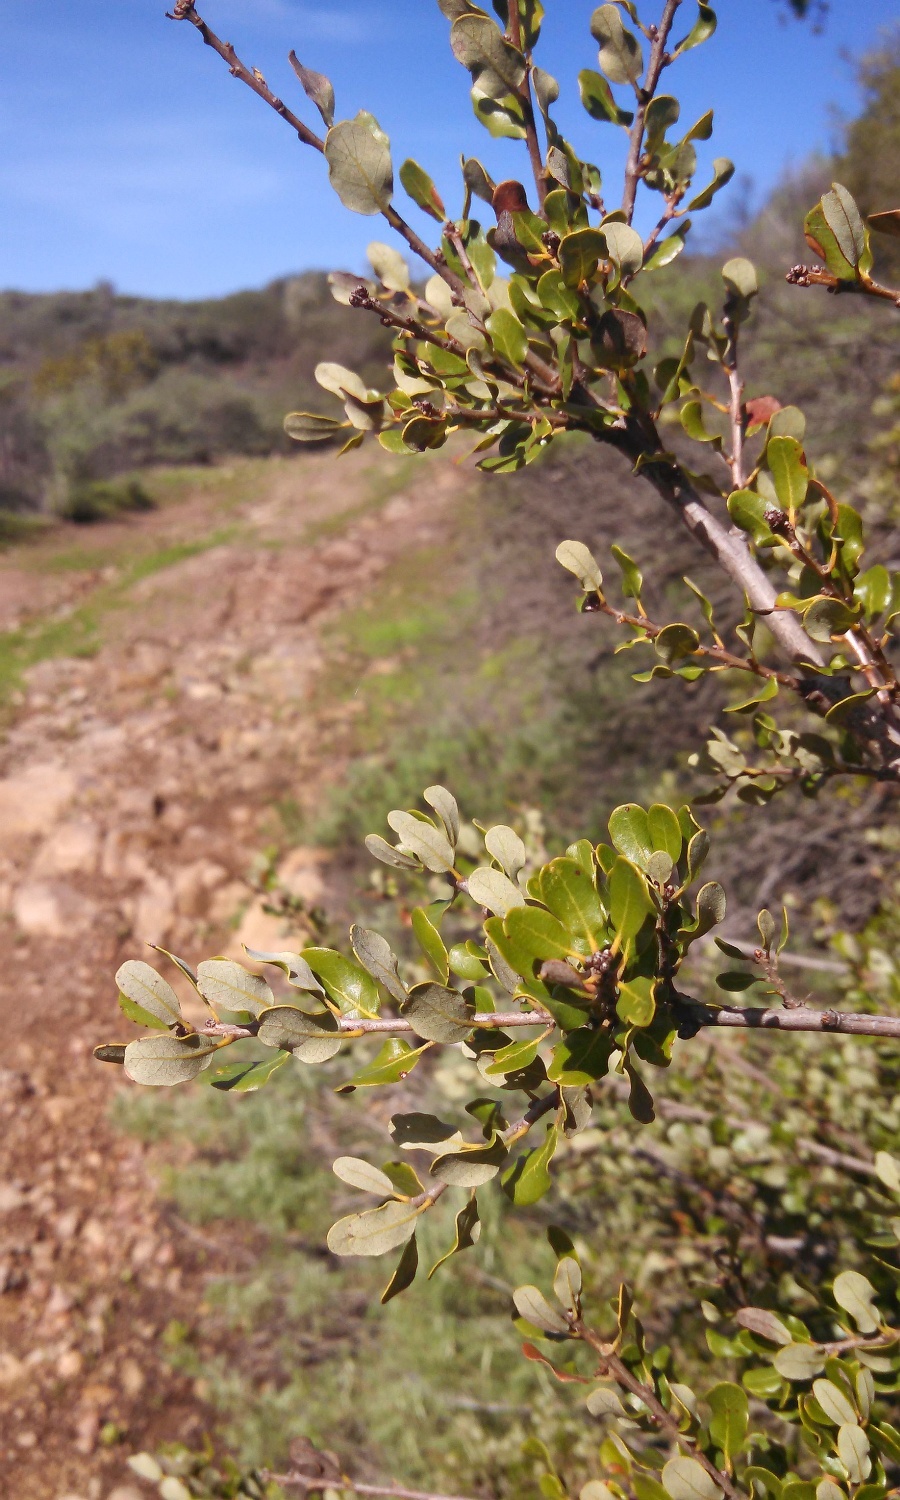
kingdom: Plantae
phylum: Tracheophyta
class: Magnoliopsida
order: Fagales
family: Fagaceae
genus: Quercus
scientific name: Quercus pacifica
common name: Channel island scrub oak
